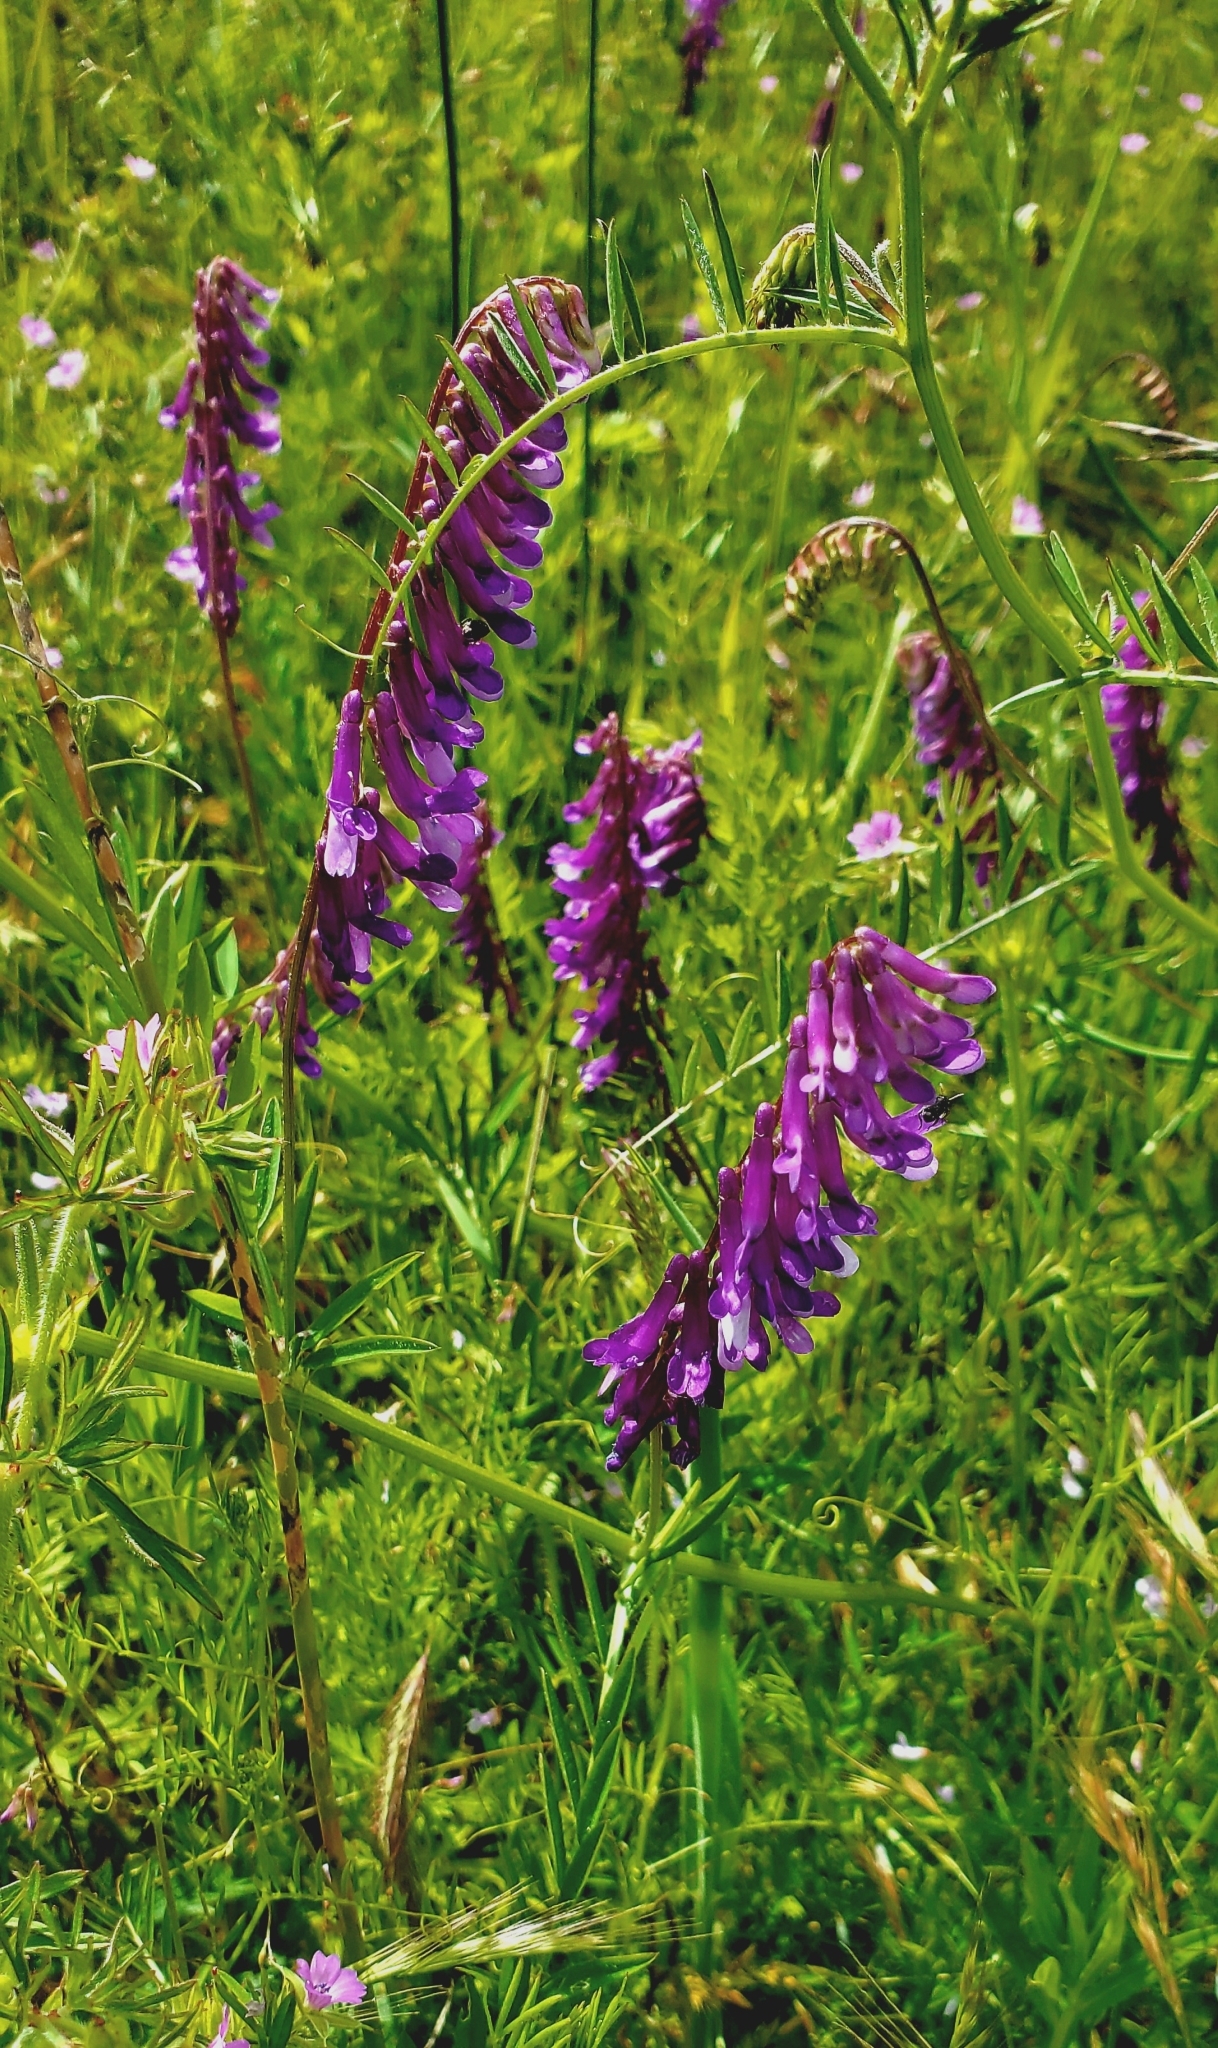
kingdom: Plantae
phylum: Tracheophyta
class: Magnoliopsida
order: Fabales
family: Fabaceae
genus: Vicia
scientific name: Vicia villosa
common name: Fodder vetch
